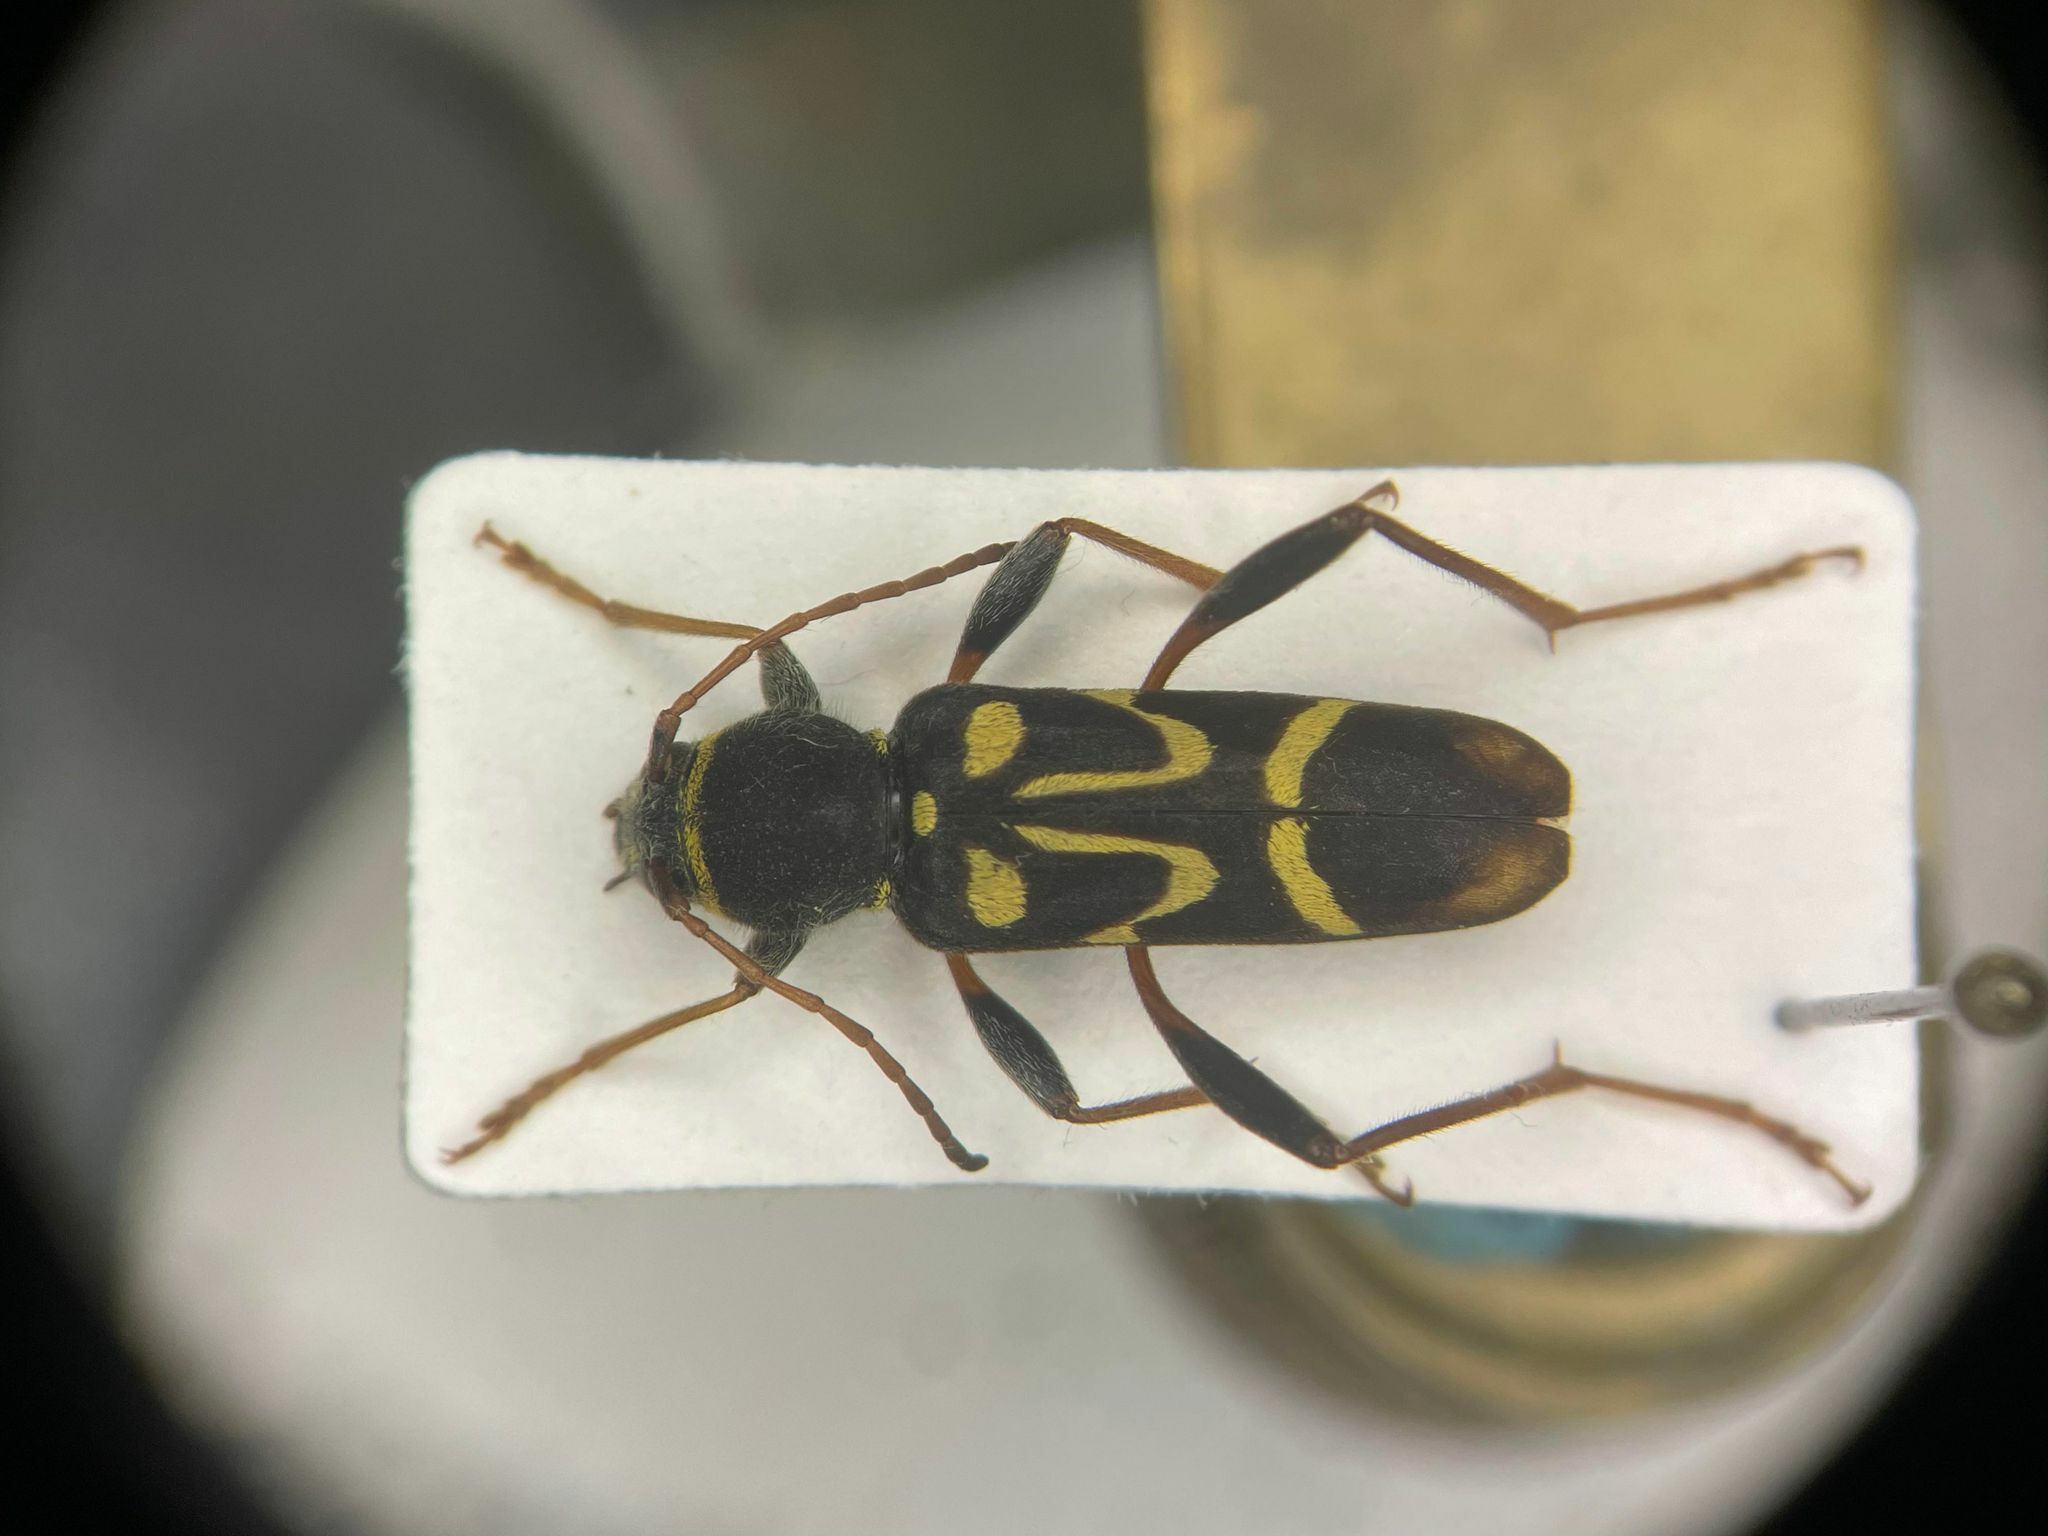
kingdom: Animalia
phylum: Arthropoda
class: Insecta
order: Coleoptera
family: Cerambycidae
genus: Clytus
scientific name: Clytus ruricola
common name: Round-necked longhorn beetle
